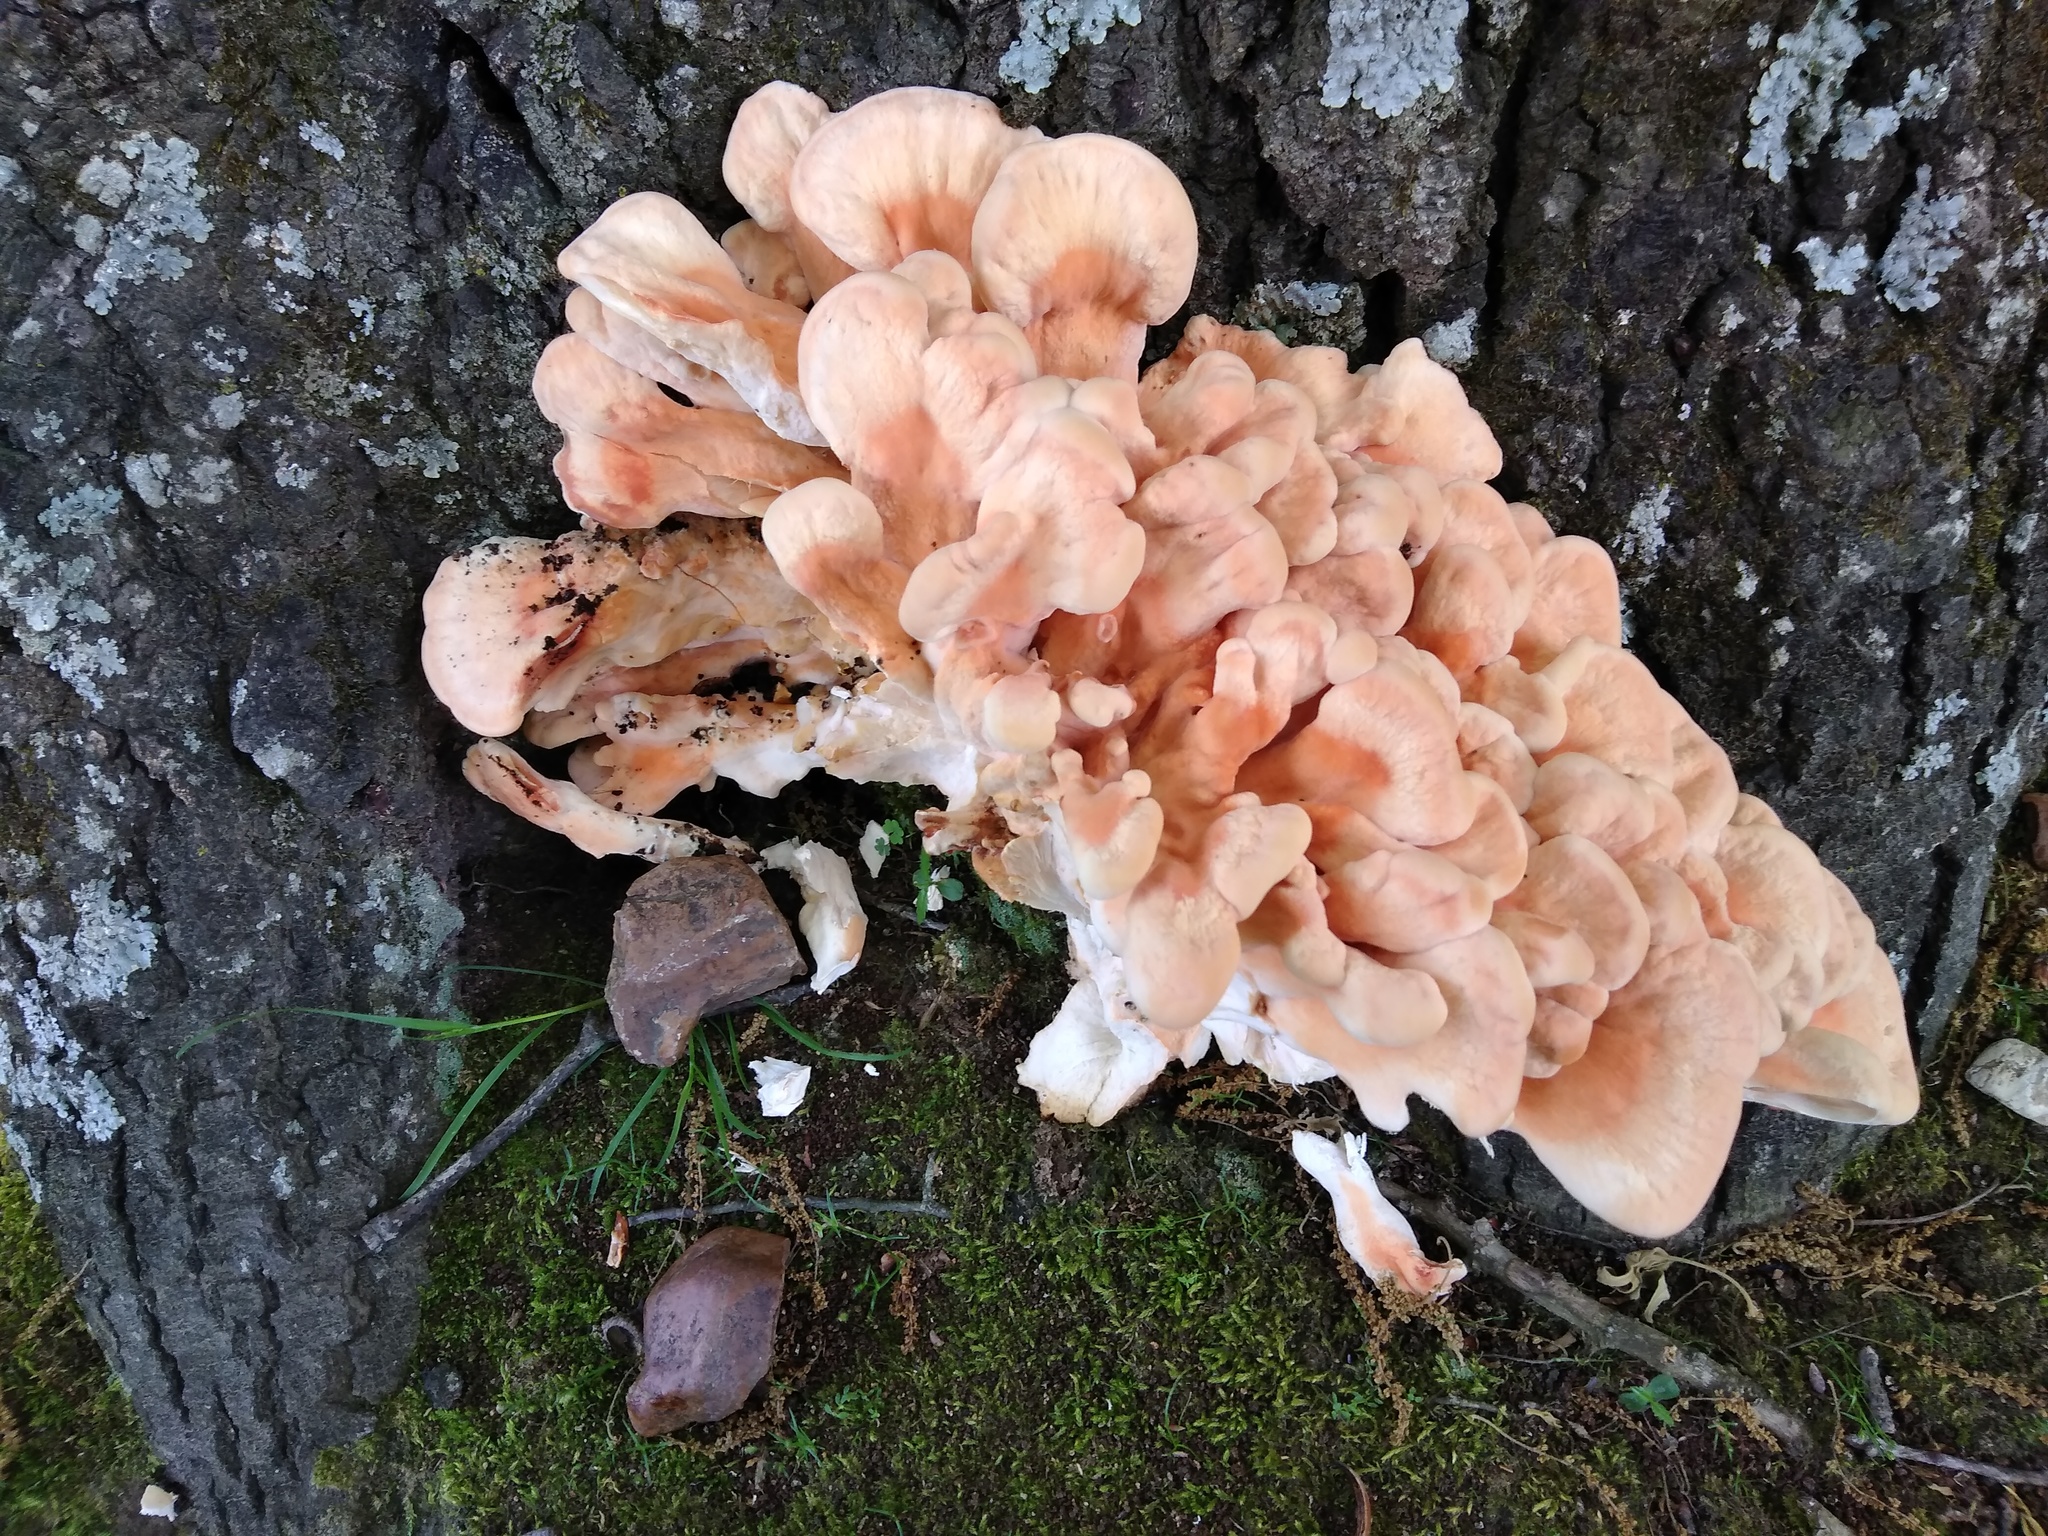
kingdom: Fungi
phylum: Basidiomycota
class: Agaricomycetes
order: Polyporales
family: Laetiporaceae
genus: Laetiporus
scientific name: Laetiporus sulphureus
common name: Chicken of the woods
